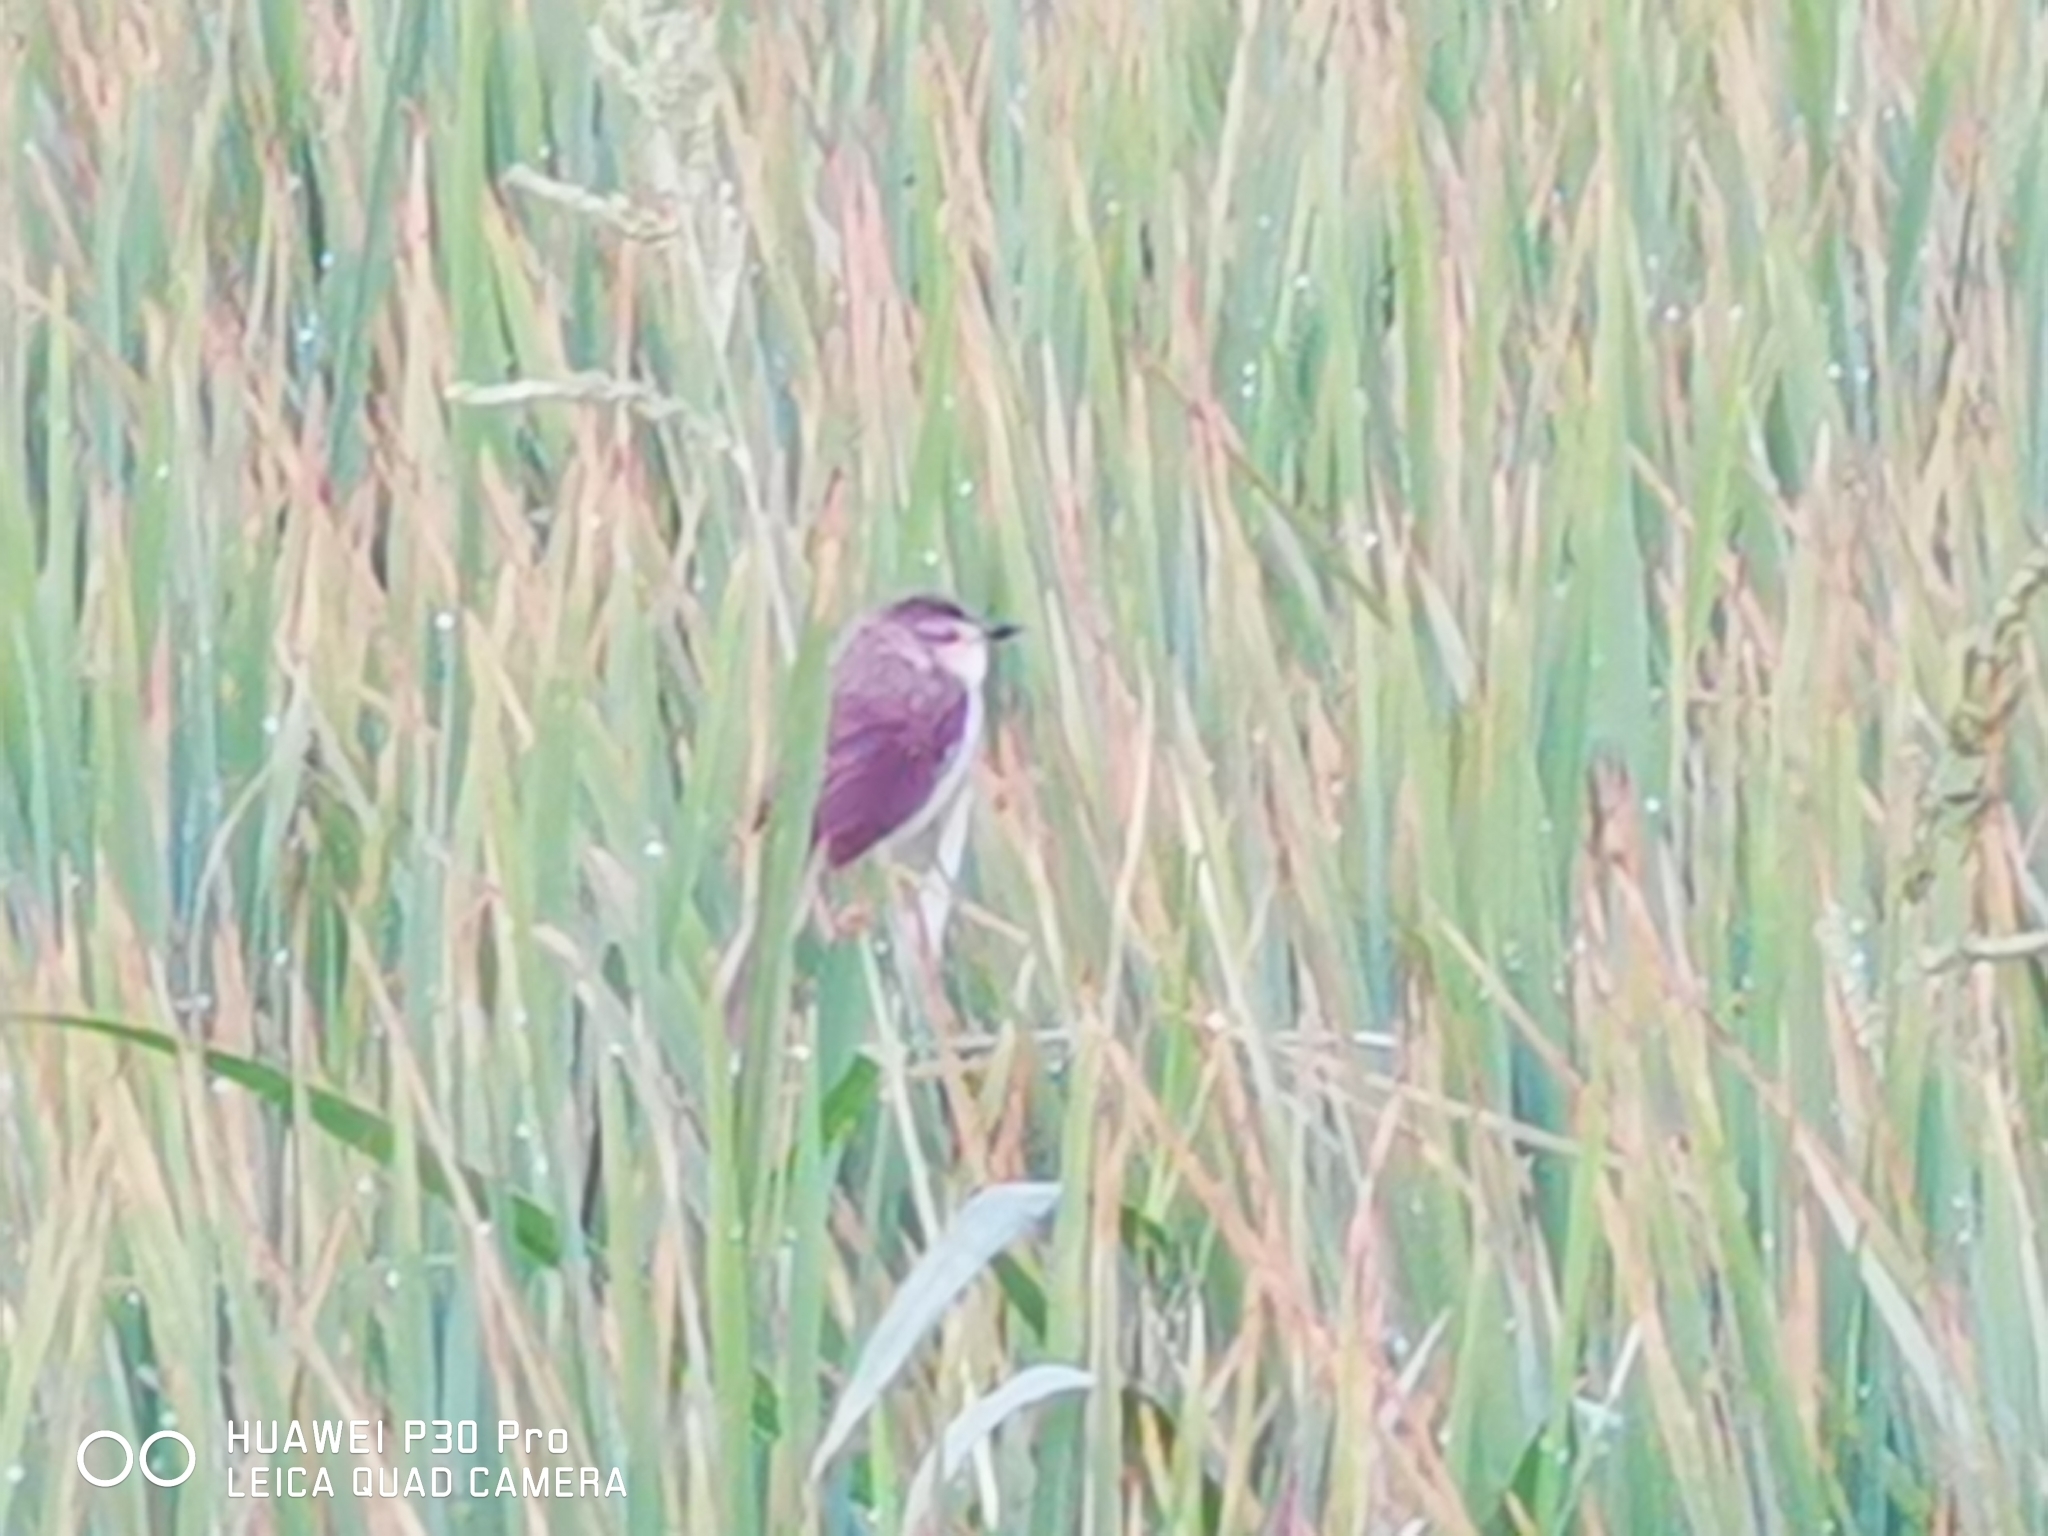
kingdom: Animalia
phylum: Chordata
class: Aves
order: Passeriformes
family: Cisticolidae
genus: Prinia
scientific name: Prinia inornata
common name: Plain prinia
